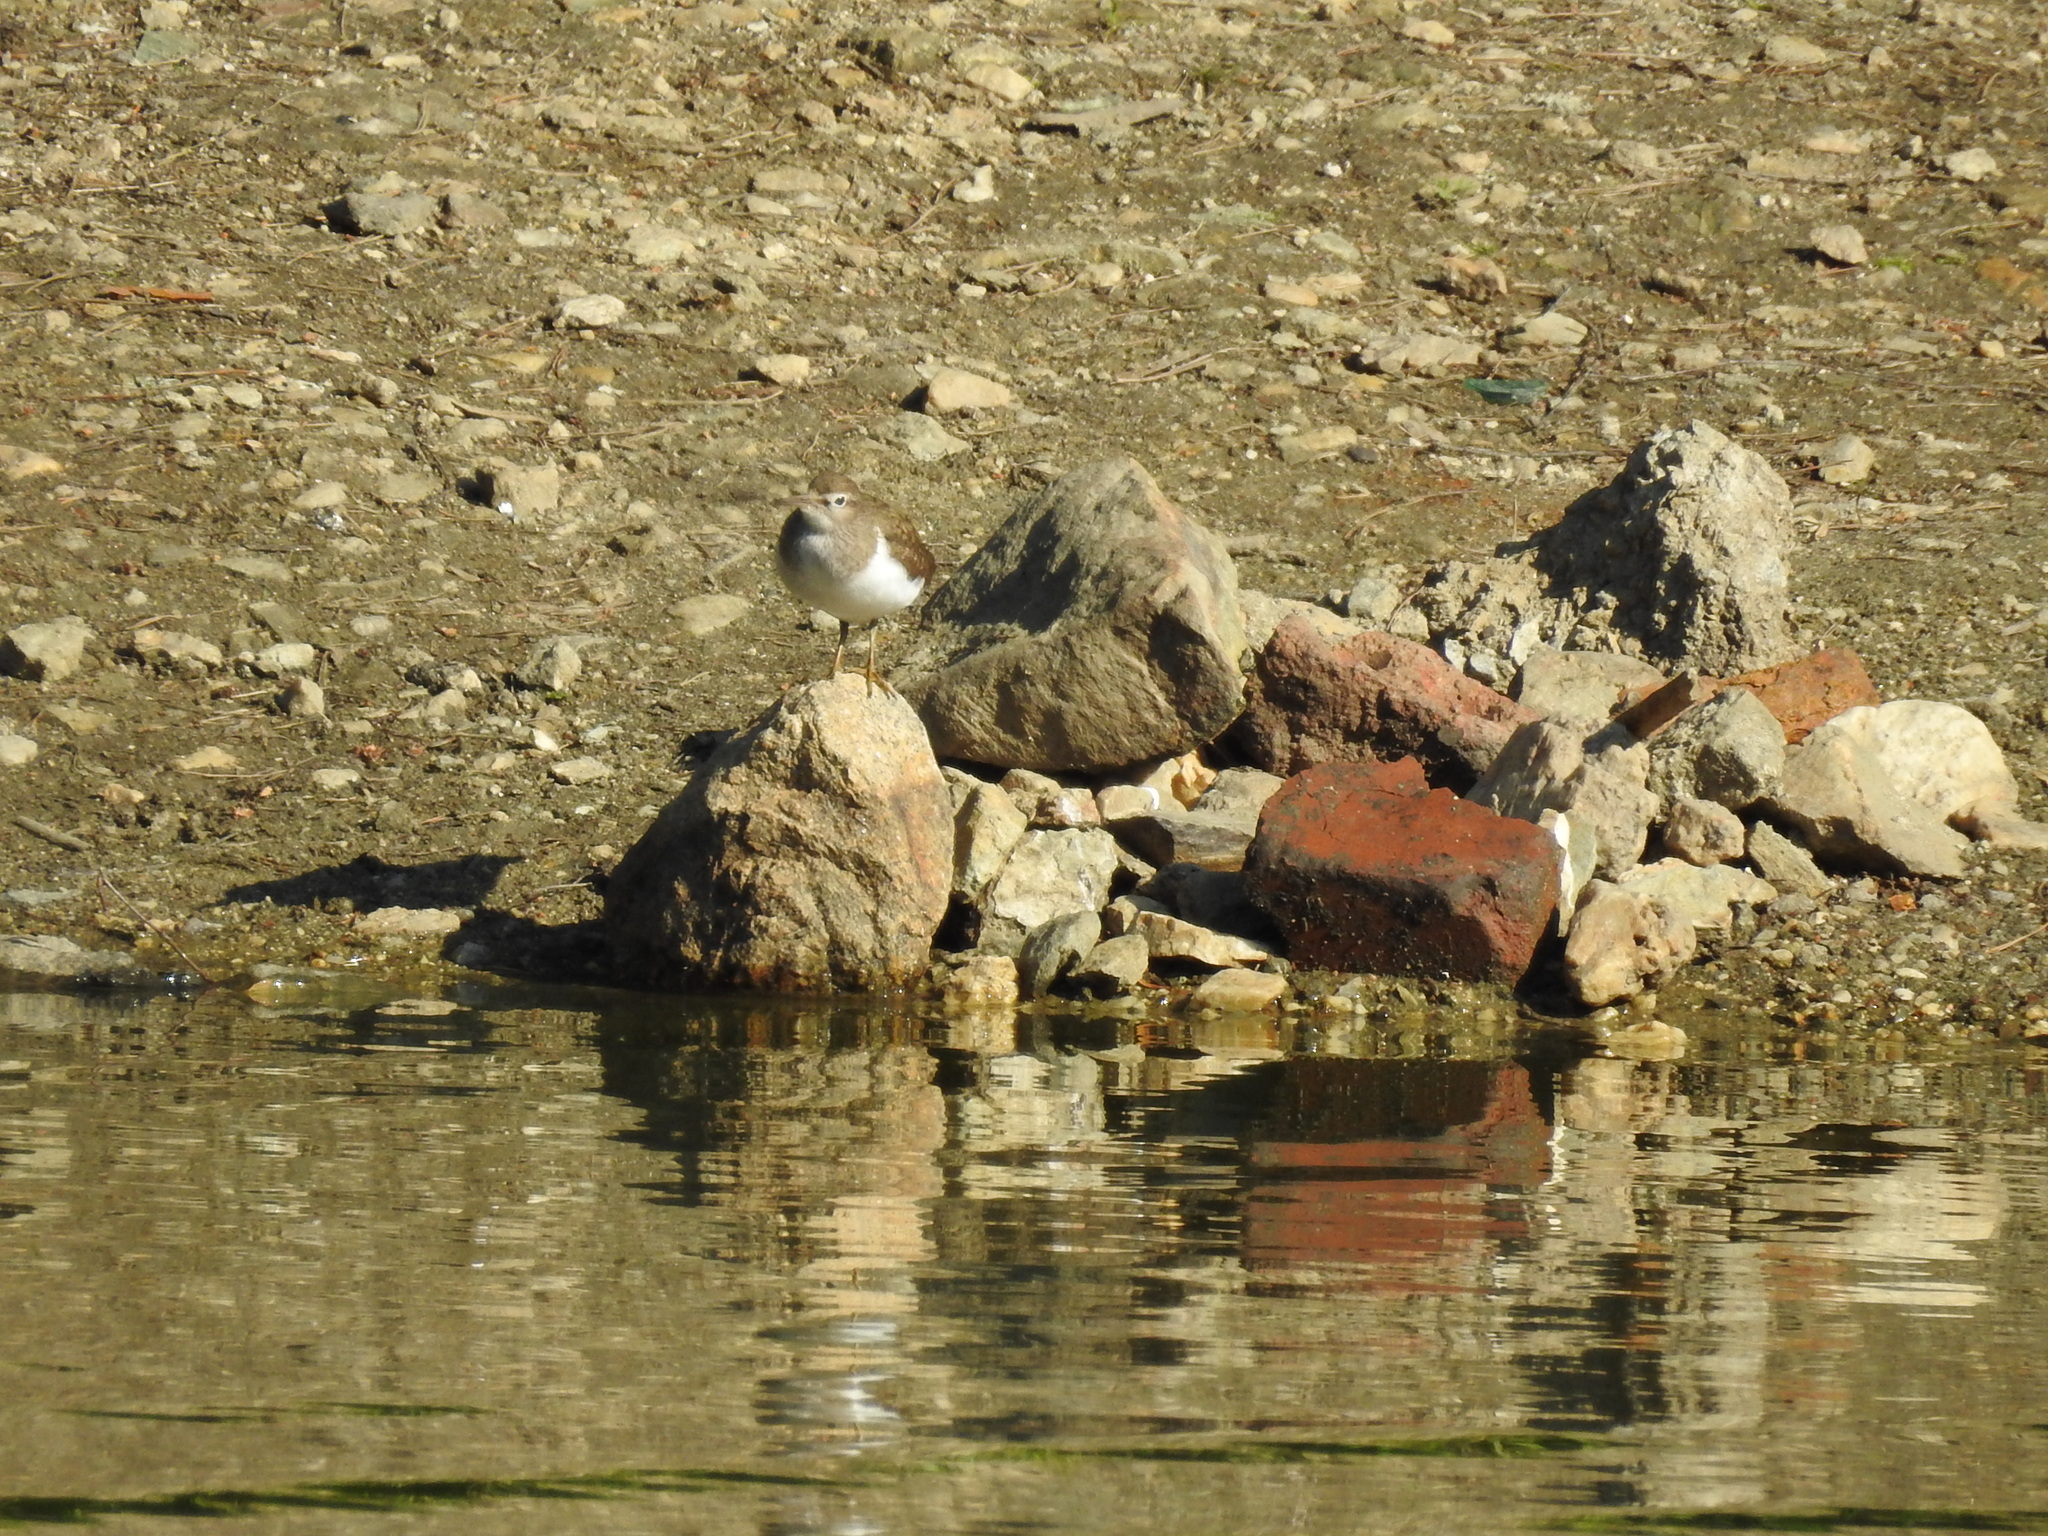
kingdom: Animalia
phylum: Chordata
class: Aves
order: Charadriiformes
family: Scolopacidae
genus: Actitis
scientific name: Actitis hypoleucos
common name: Common sandpiper
